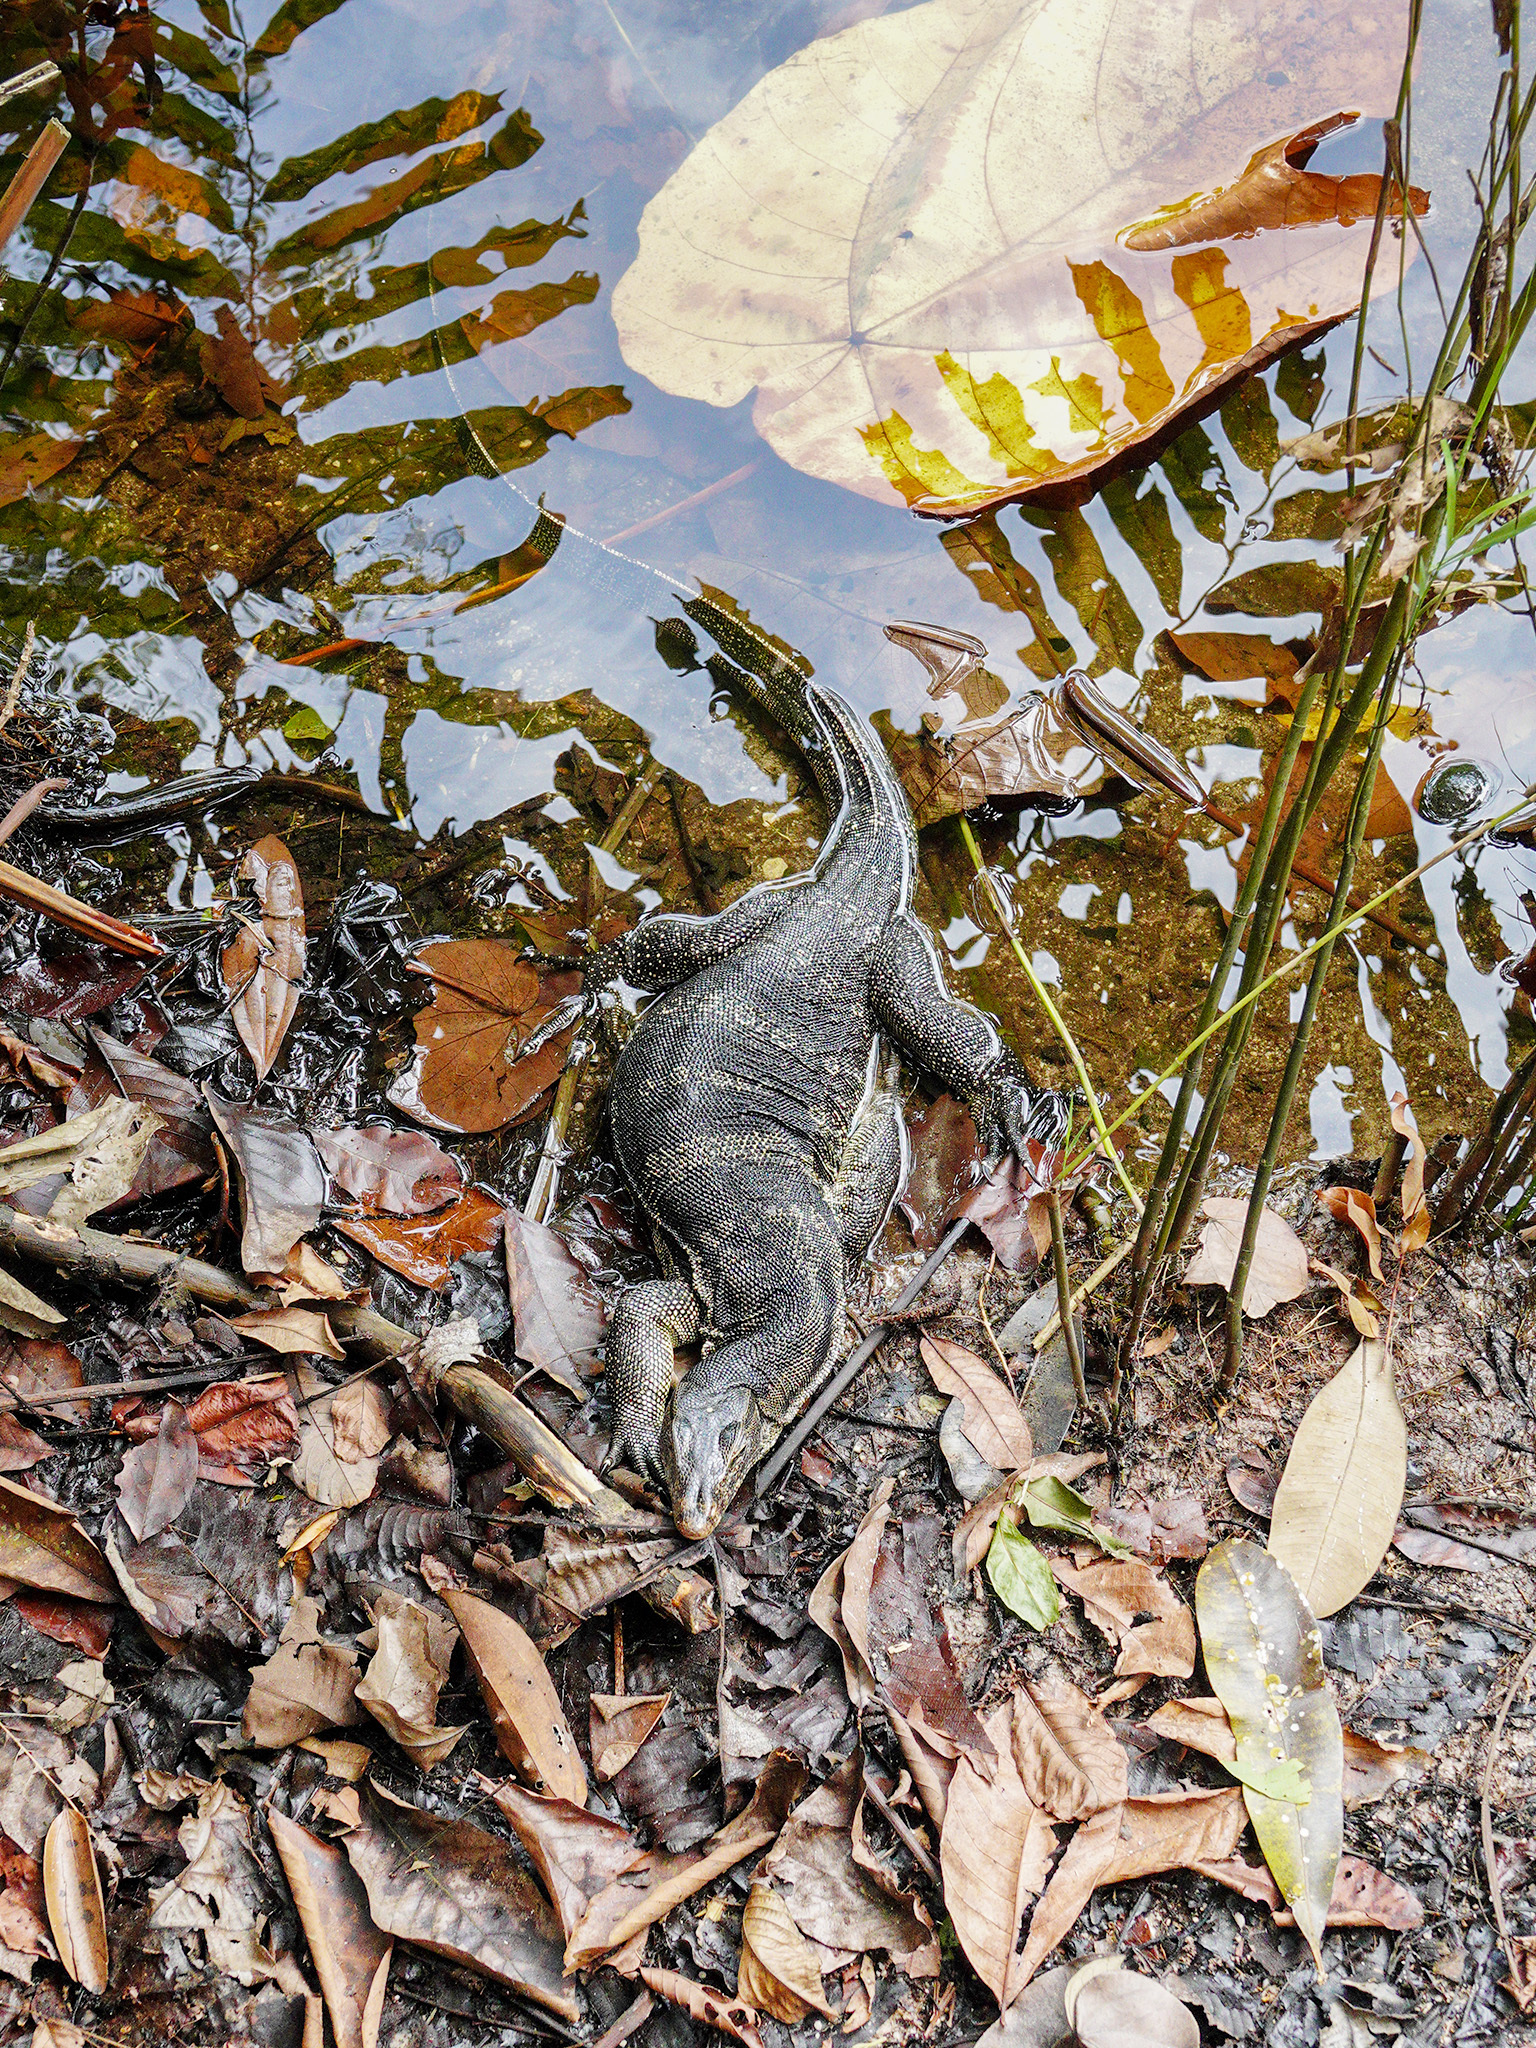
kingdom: Animalia
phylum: Chordata
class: Squamata
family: Varanidae
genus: Varanus
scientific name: Varanus salvator
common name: Common water monitor
